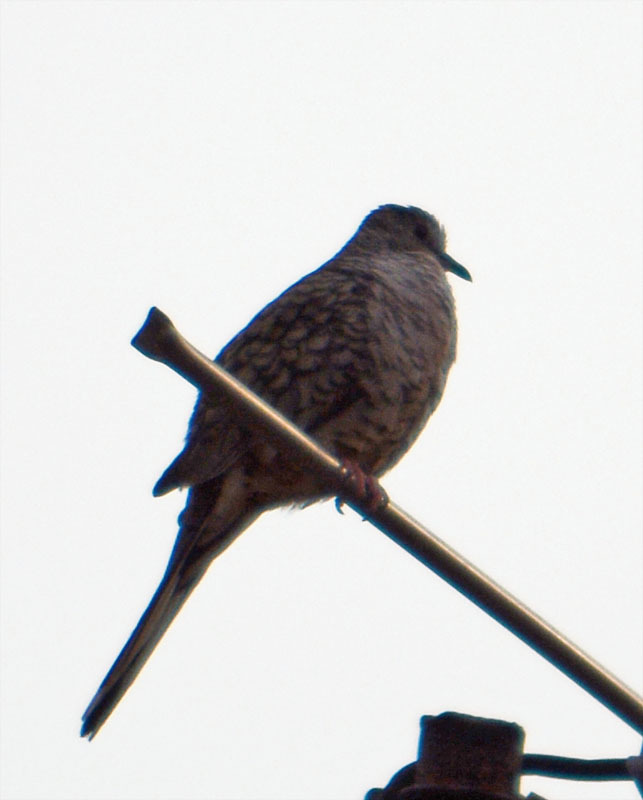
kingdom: Animalia
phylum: Chordata
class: Aves
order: Columbiformes
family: Columbidae
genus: Columbina
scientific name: Columbina inca
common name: Inca dove
